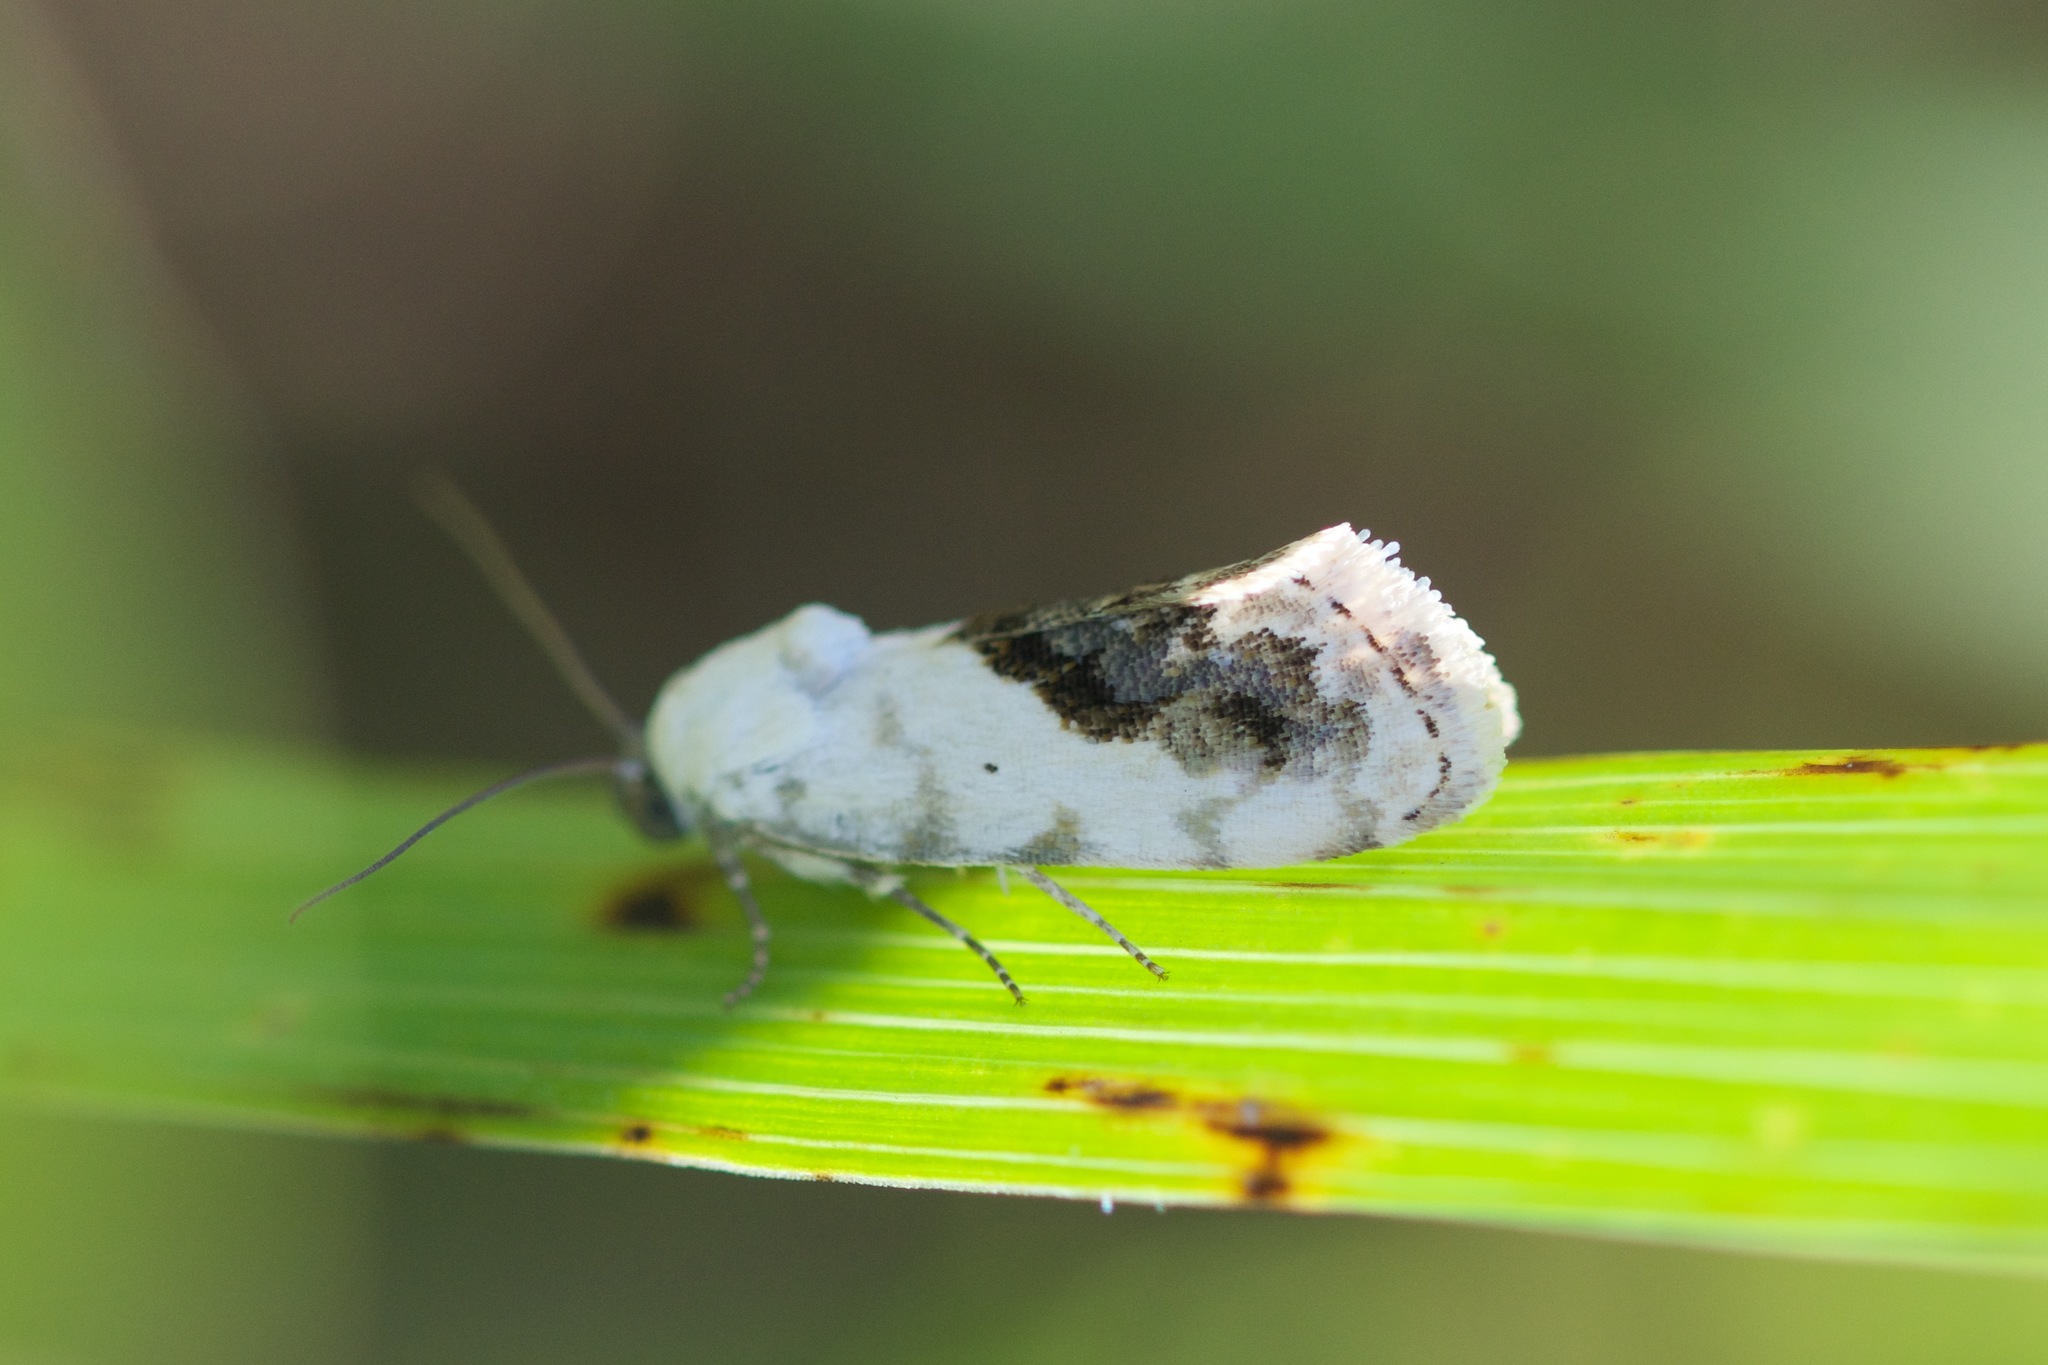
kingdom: Animalia
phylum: Arthropoda
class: Insecta
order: Lepidoptera
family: Noctuidae
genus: Acontia
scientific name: Acontia erastrioides
